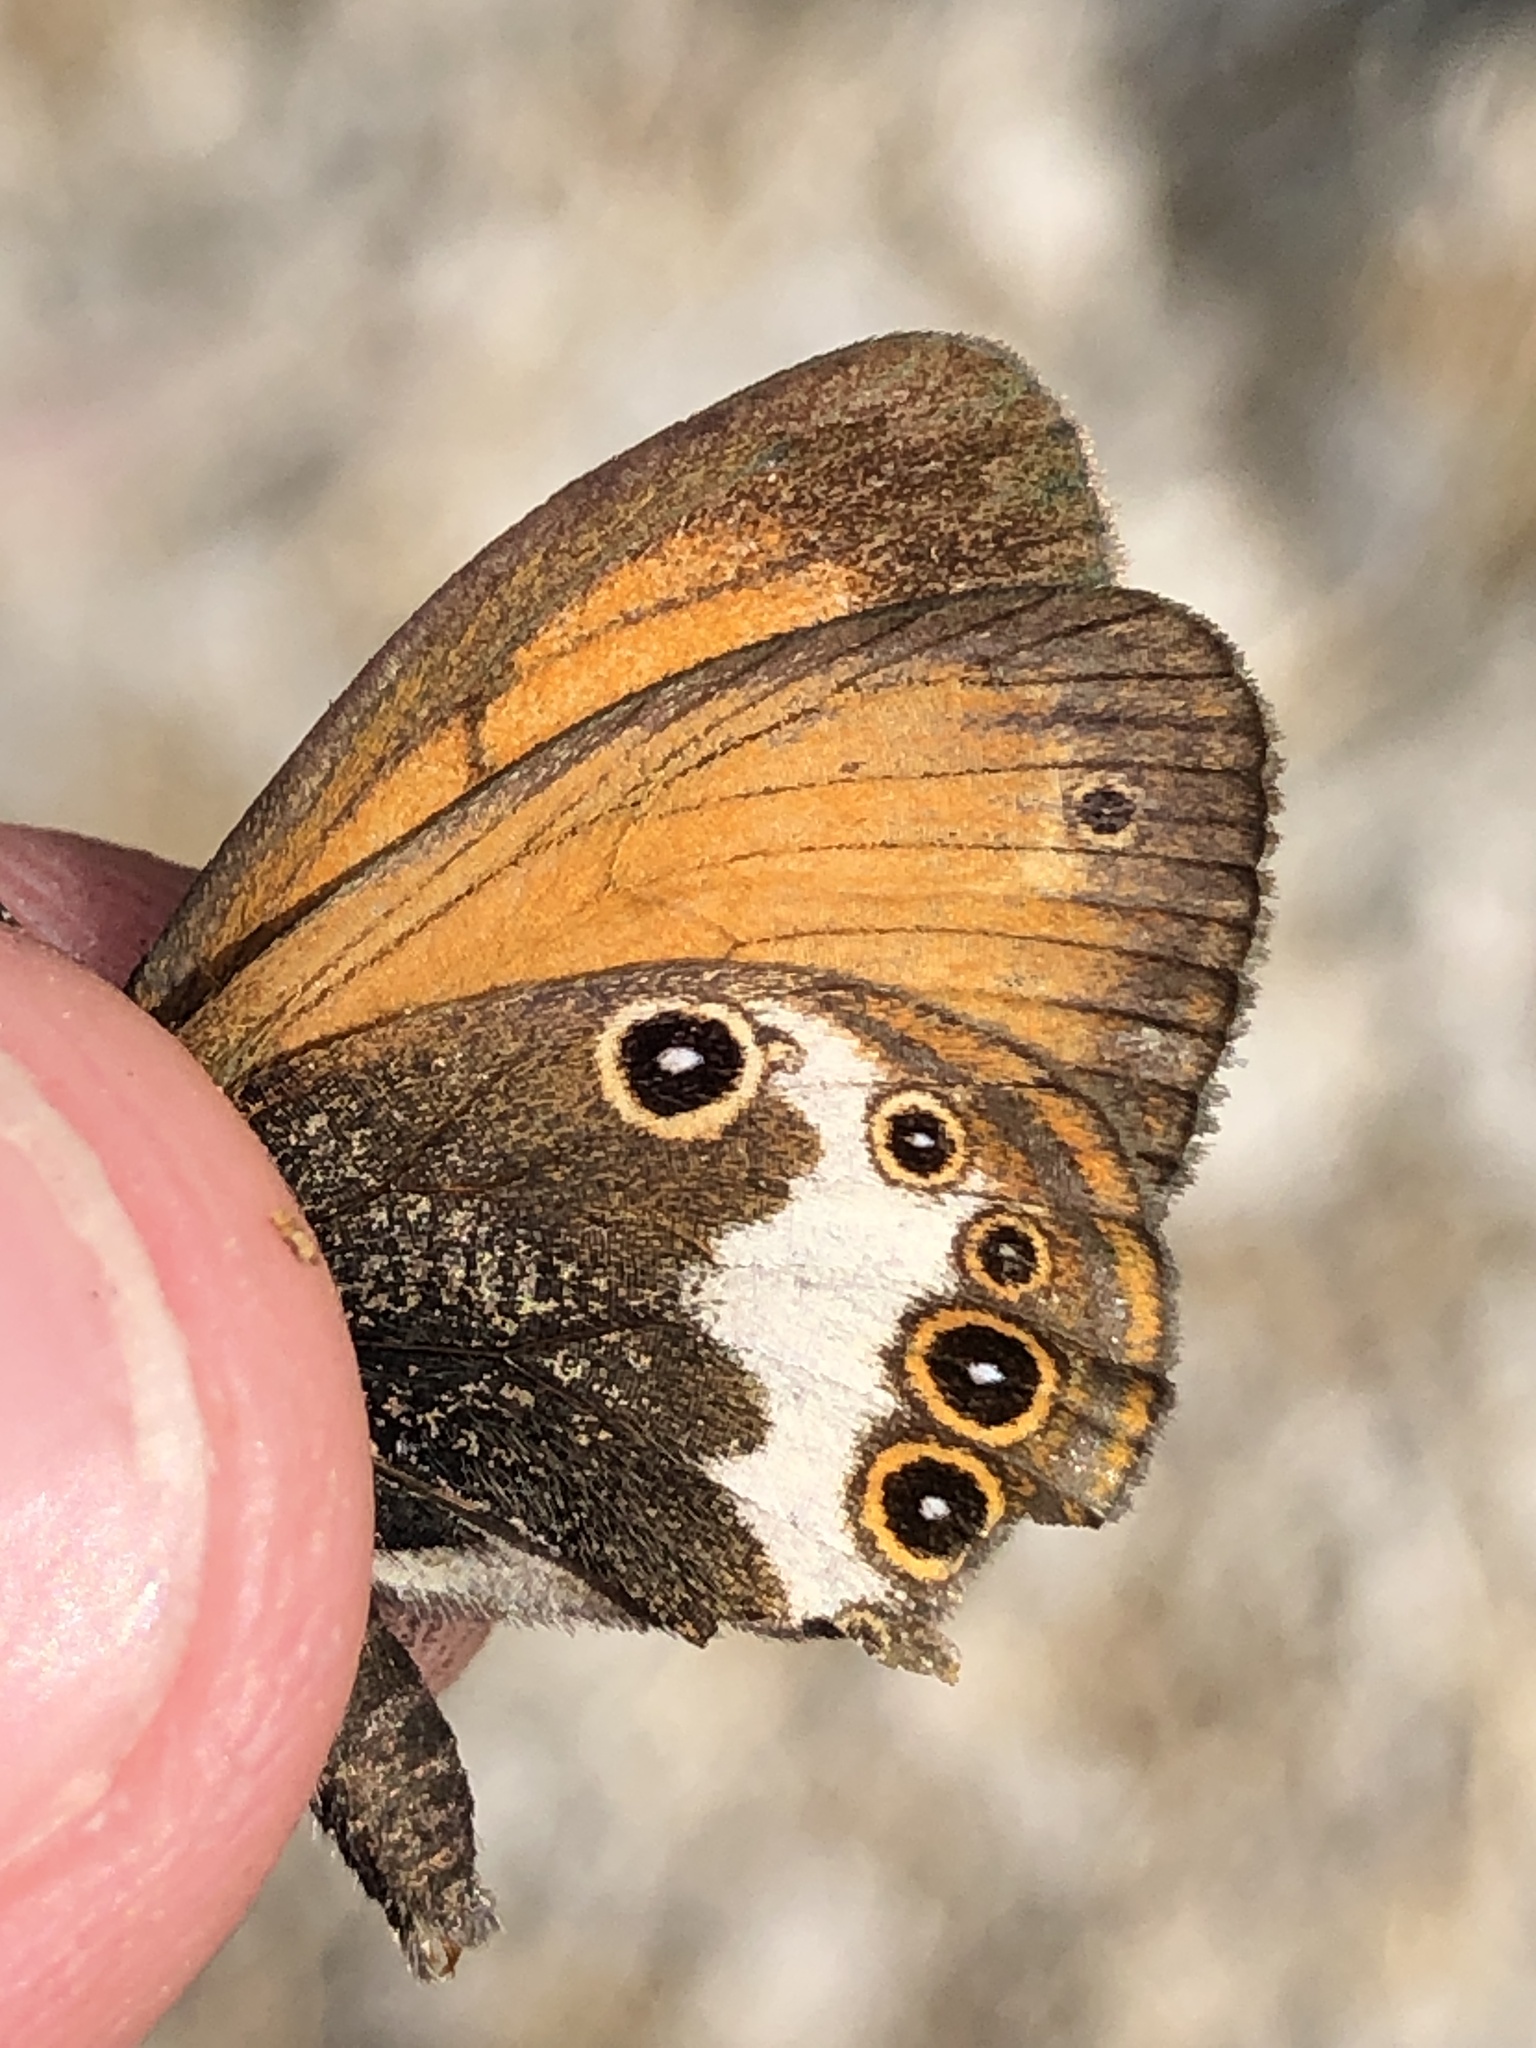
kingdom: Animalia
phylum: Arthropoda
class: Insecta
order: Lepidoptera
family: Nymphalidae
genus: Coenonympha
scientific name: Coenonympha arcania
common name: Pearly heath
